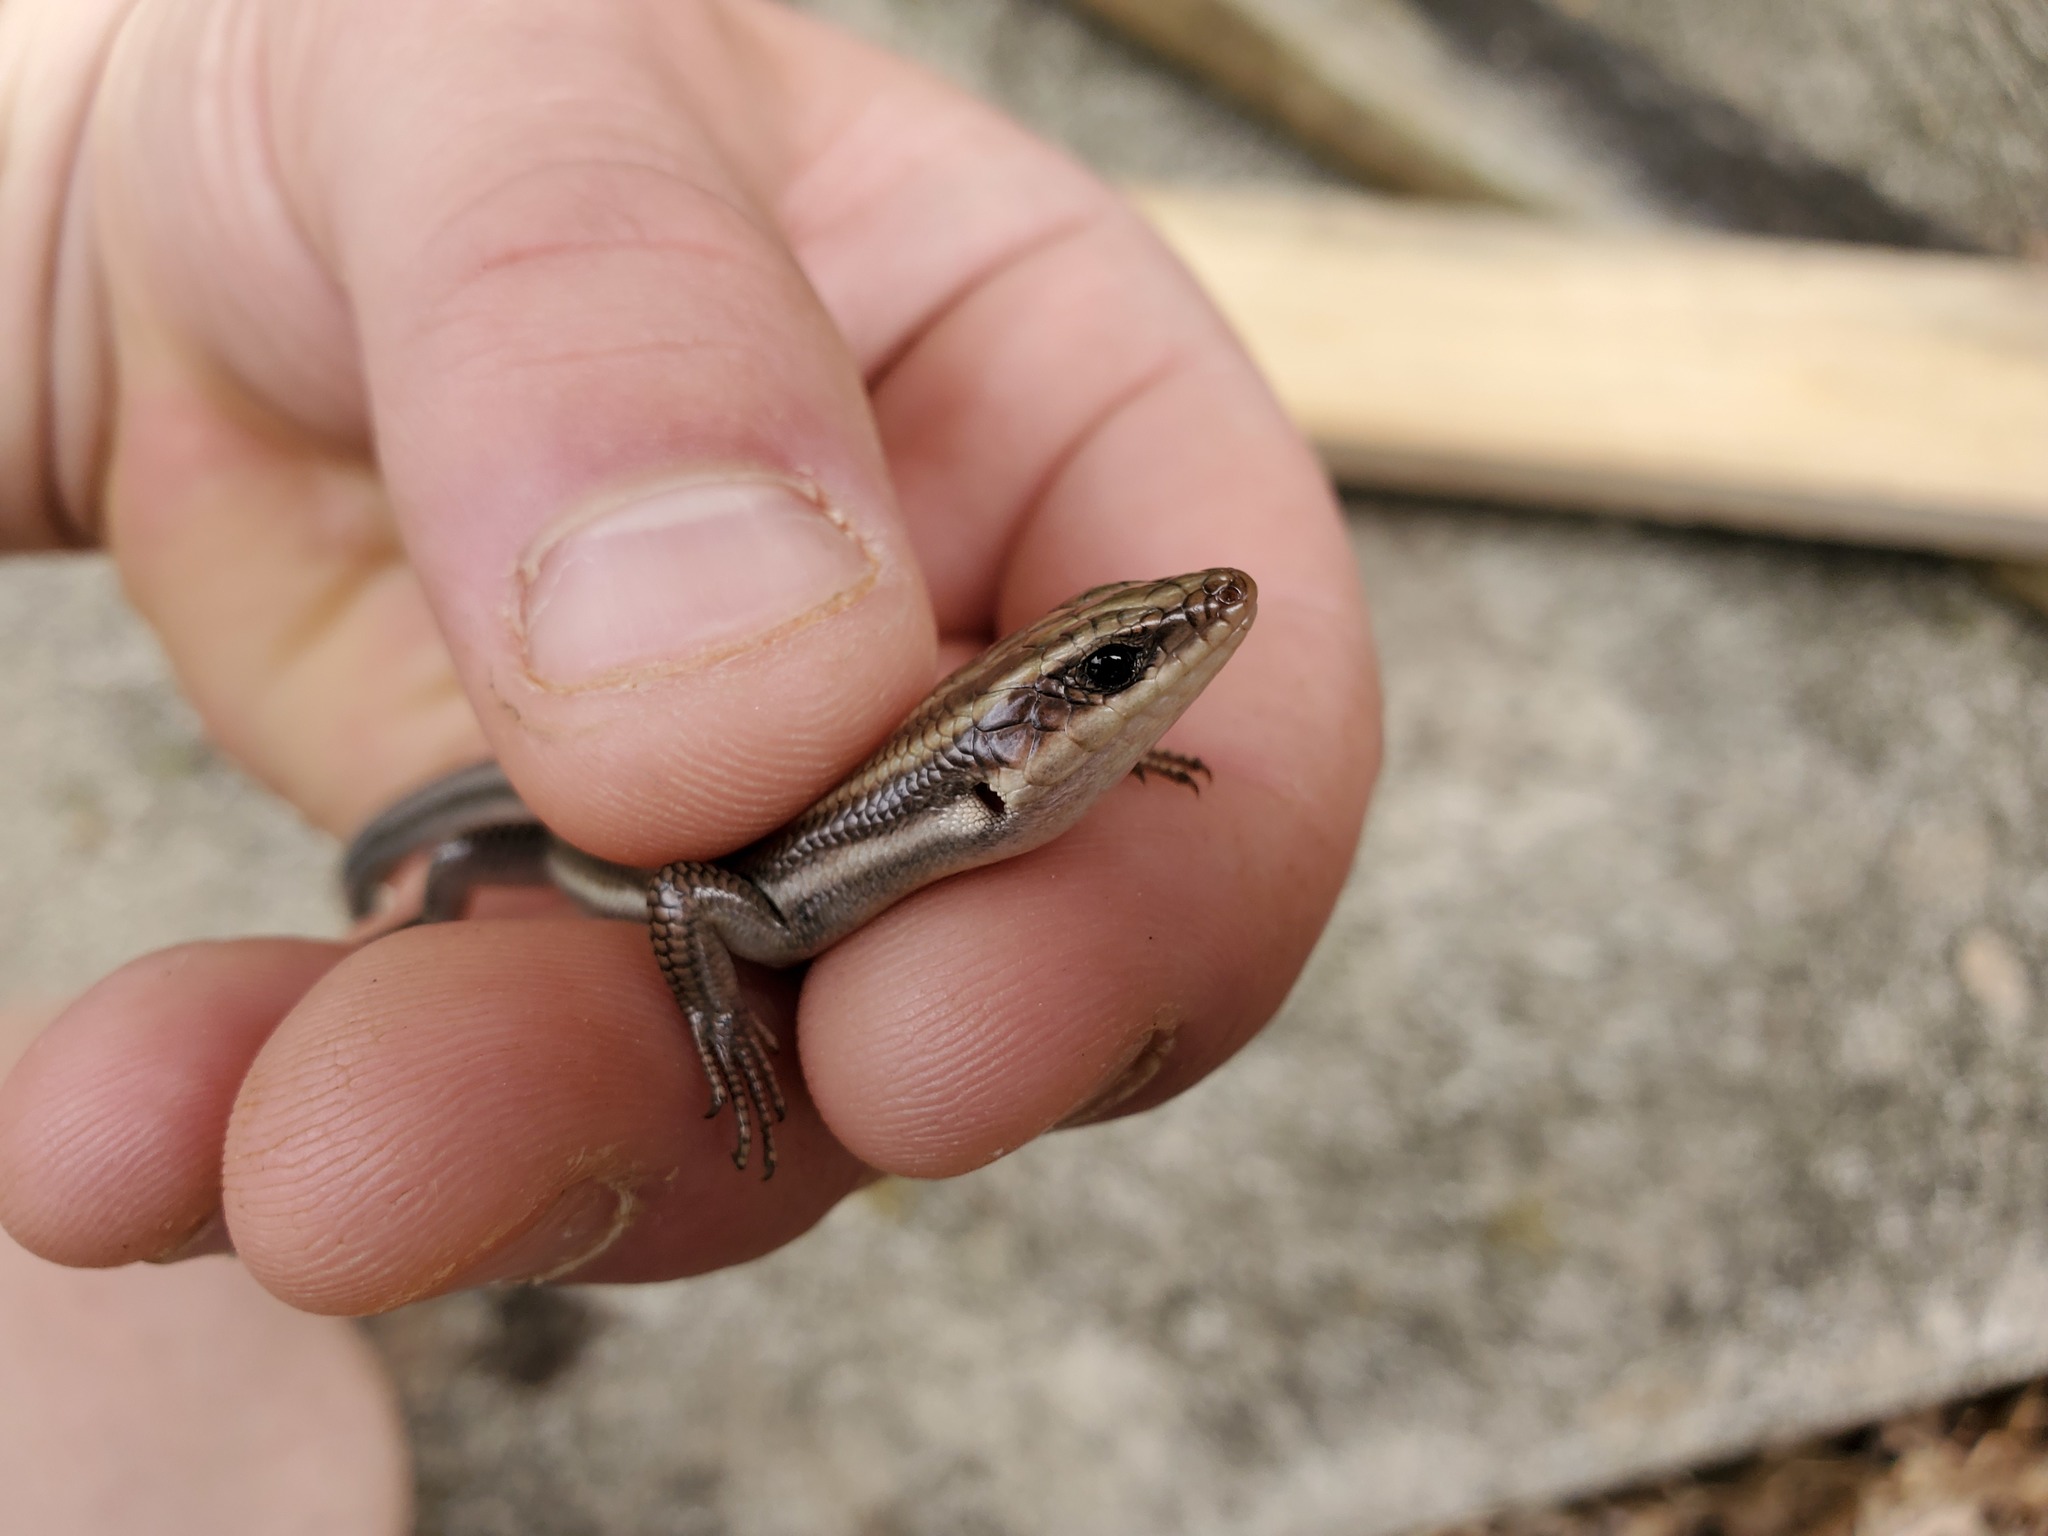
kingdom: Animalia
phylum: Chordata
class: Squamata
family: Scincidae
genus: Plestiodon
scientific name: Plestiodon fasciatus
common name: Five-lined skink
